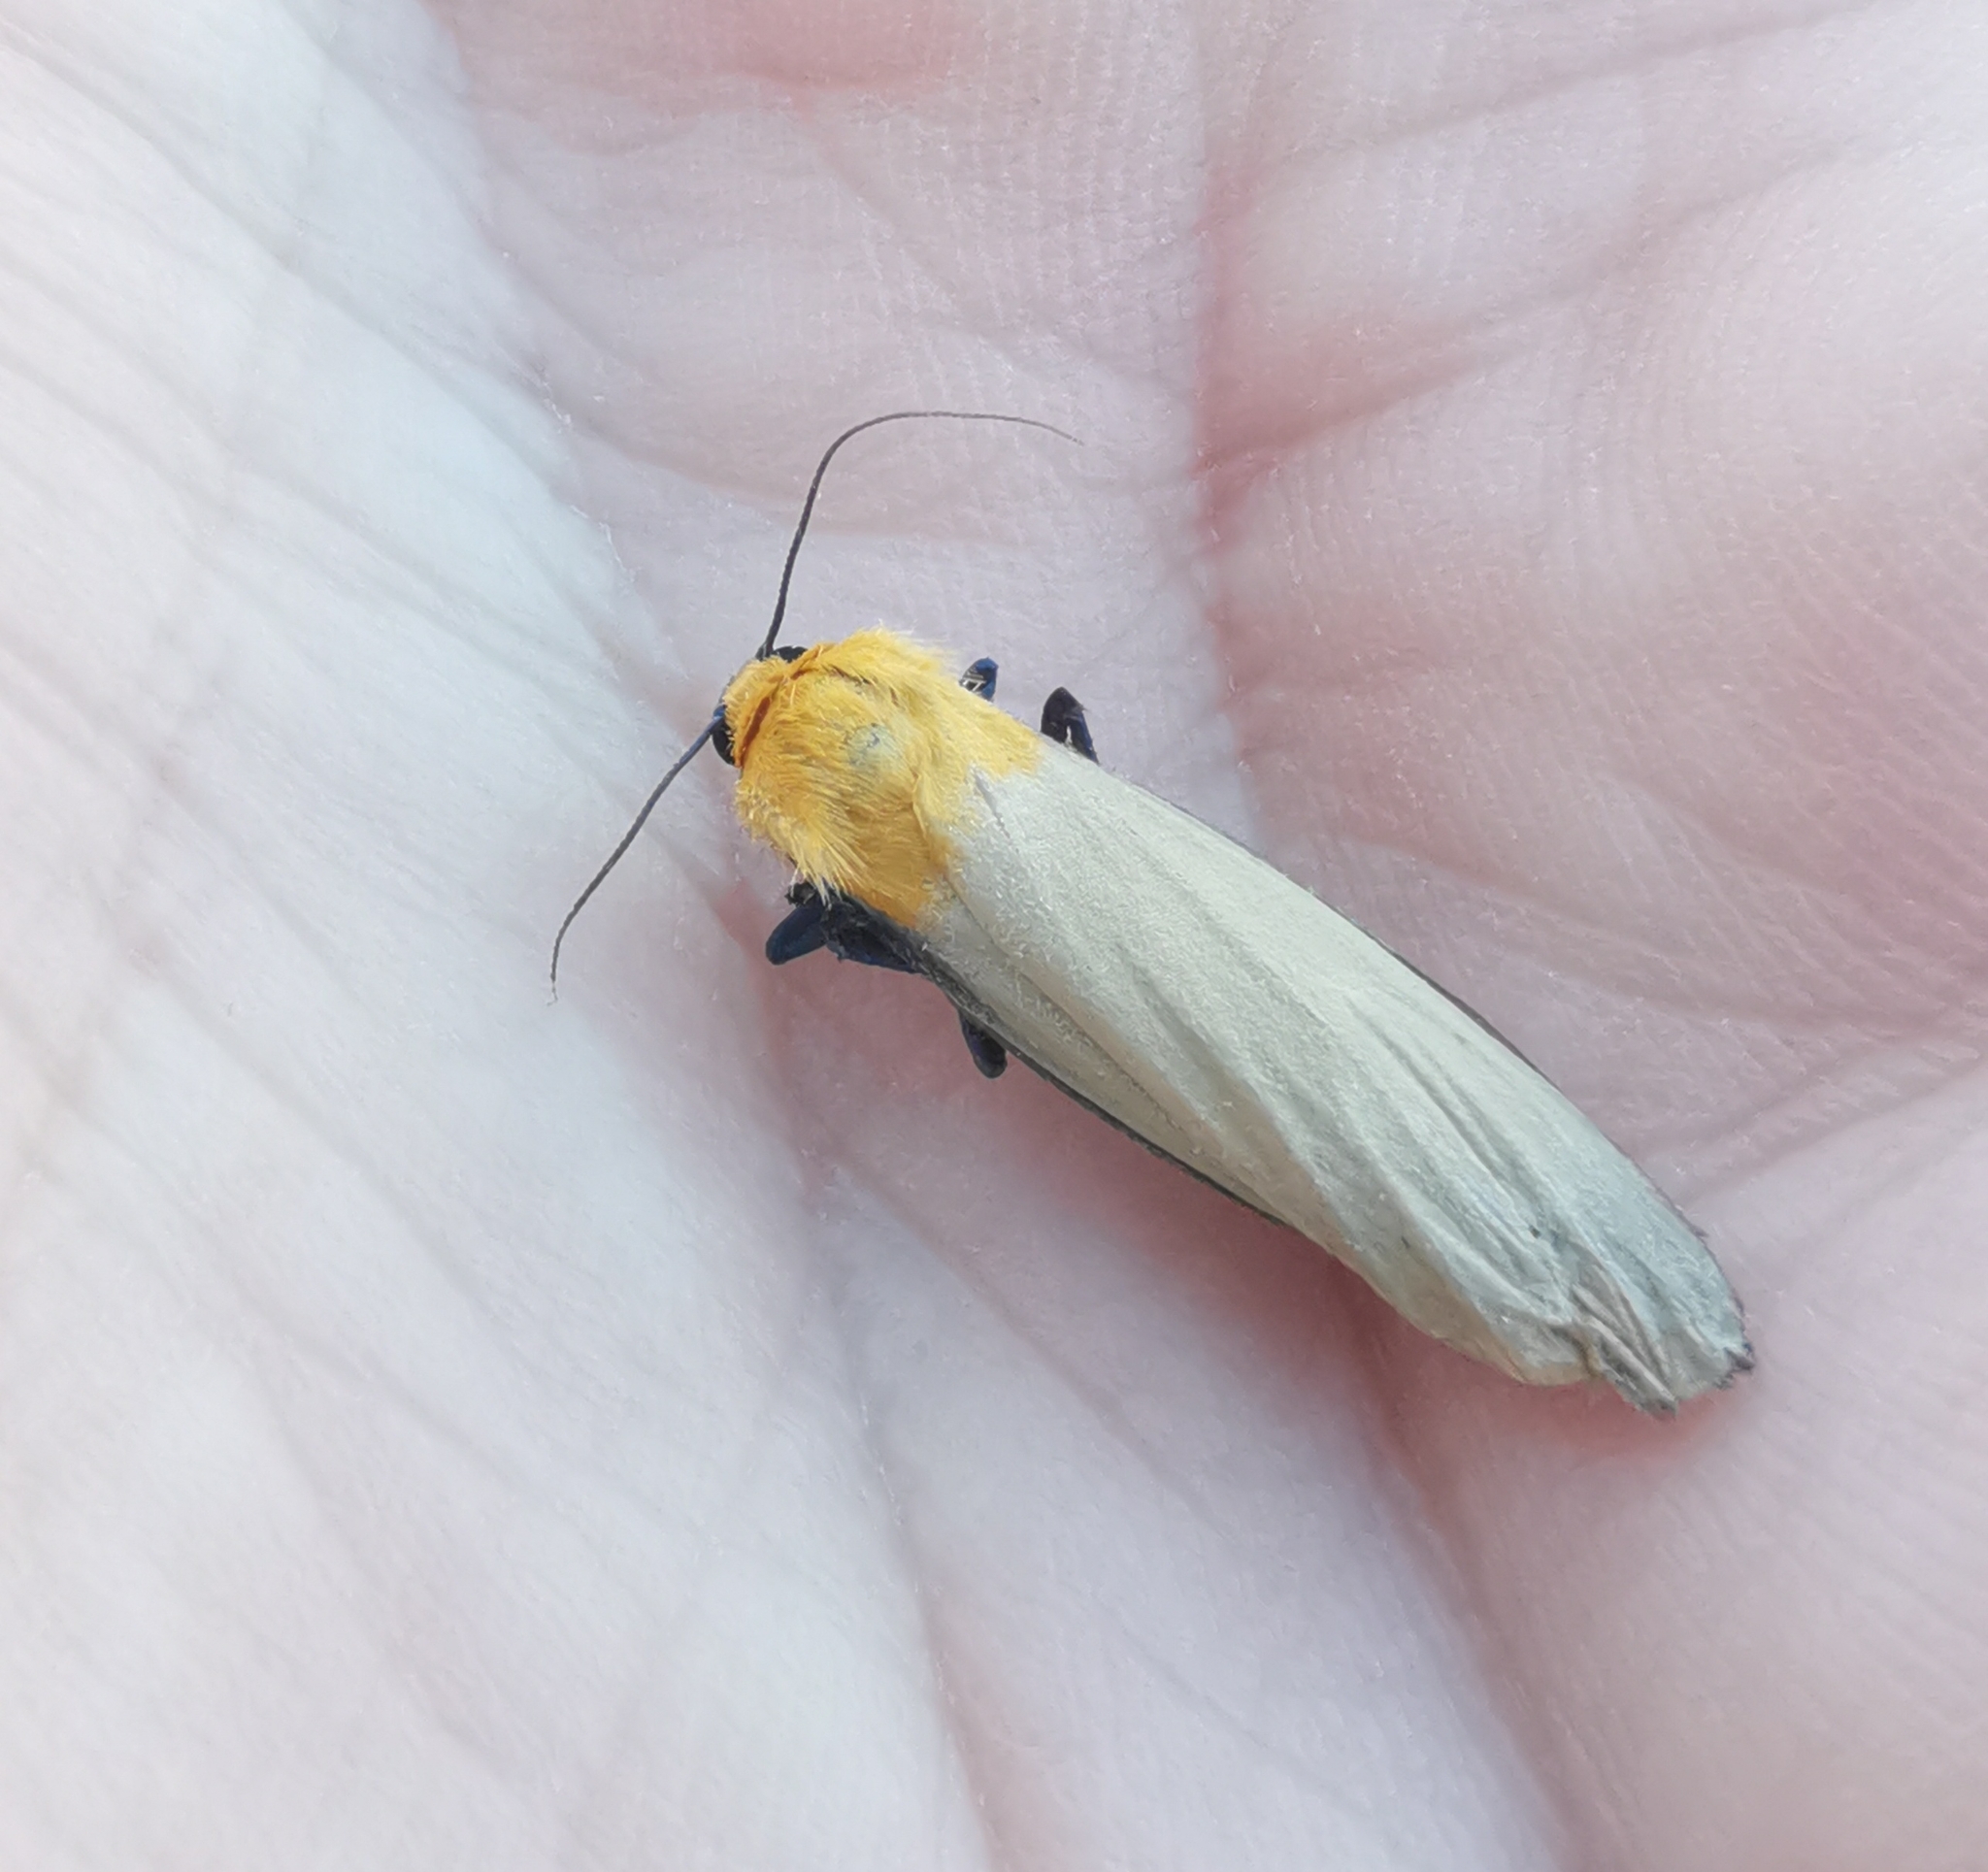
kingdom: Animalia
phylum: Arthropoda
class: Insecta
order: Lepidoptera
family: Erebidae
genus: Lithosia
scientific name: Lithosia quadra
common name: Four-spotted footman
